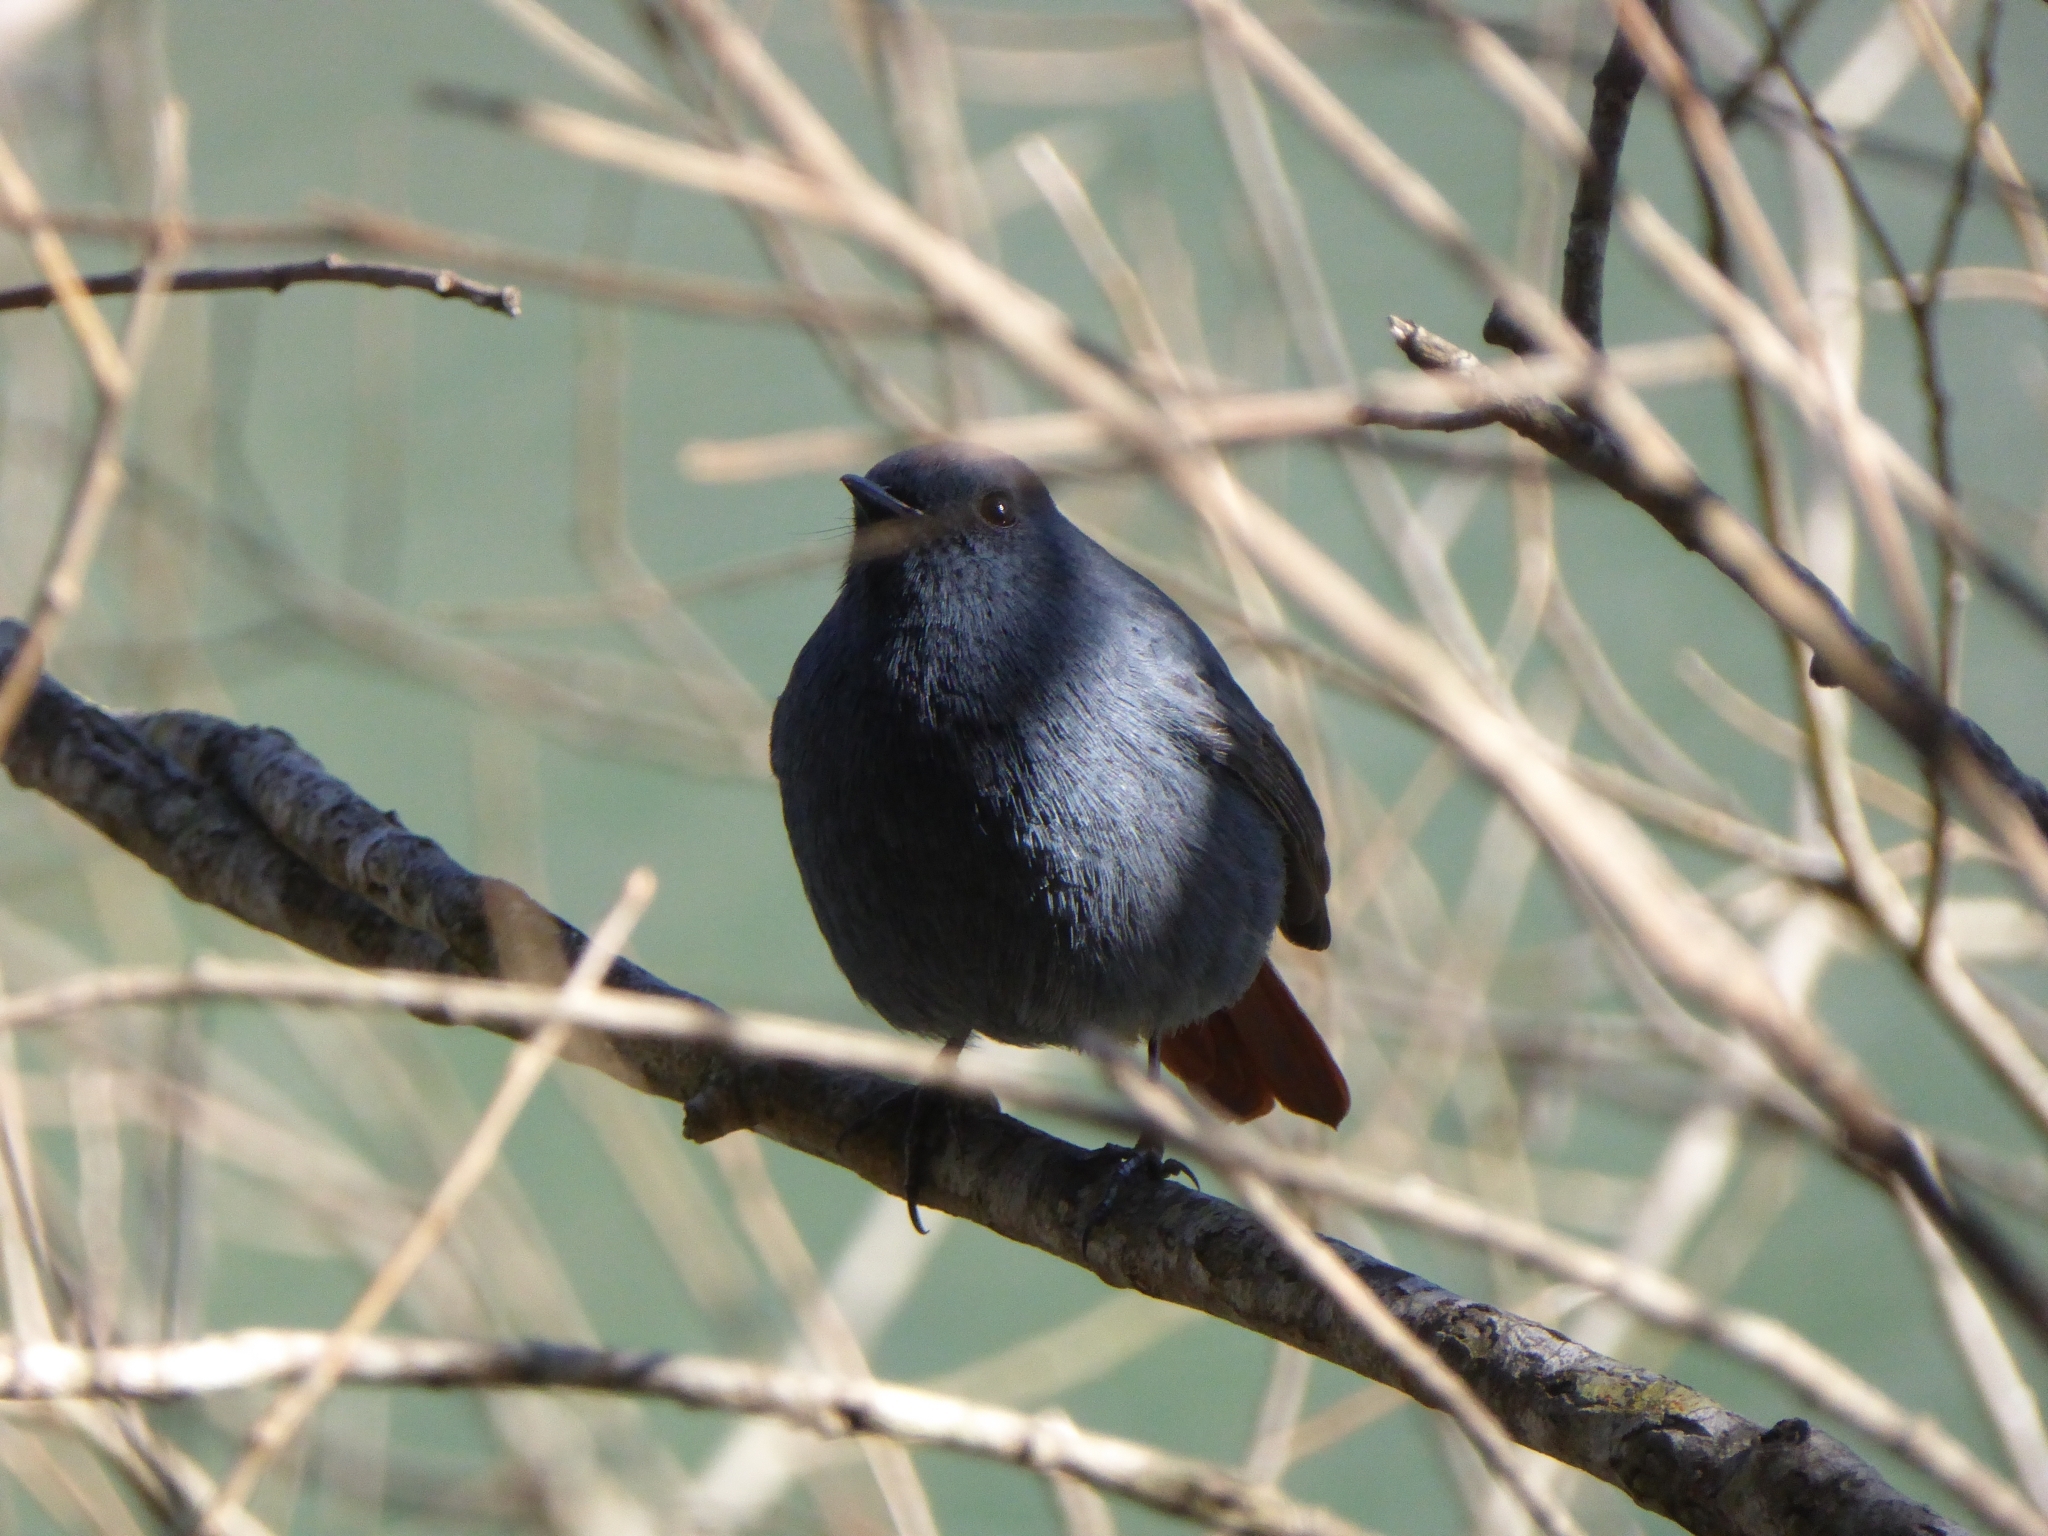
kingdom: Animalia
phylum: Chordata
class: Aves
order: Passeriformes
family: Muscicapidae
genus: Phoenicurus
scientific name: Phoenicurus fuliginosus
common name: Plumbeous water redstart
